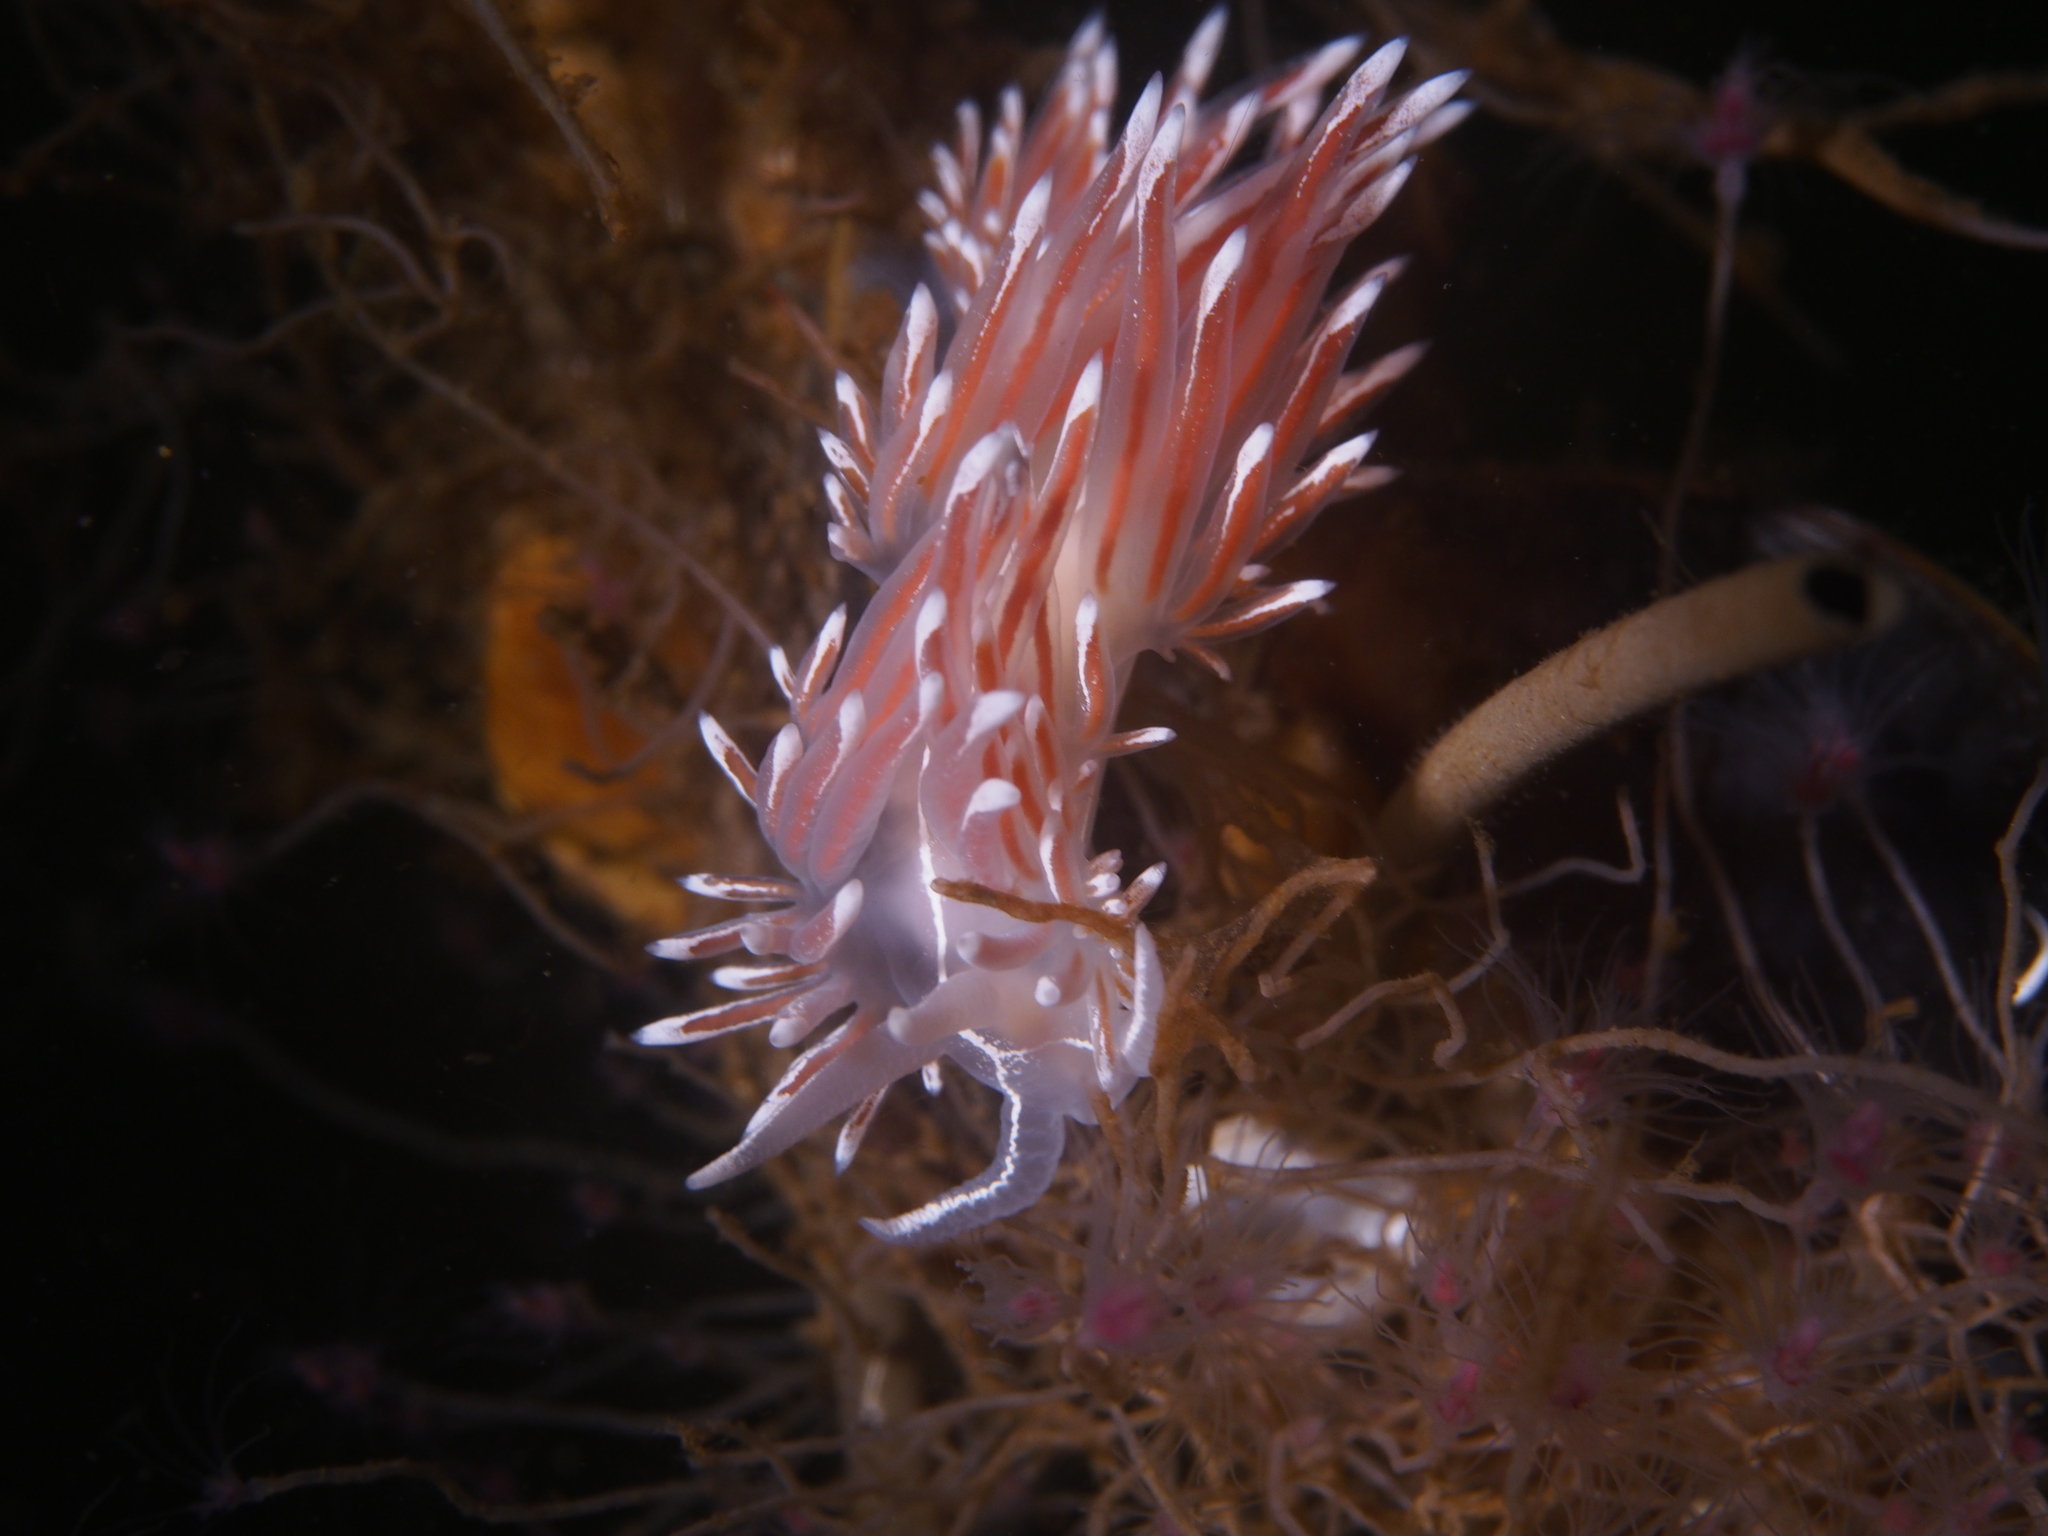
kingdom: Animalia
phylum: Mollusca
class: Gastropoda
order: Nudibranchia
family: Coryphellidae
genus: Coryphella
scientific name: Coryphella lineata
